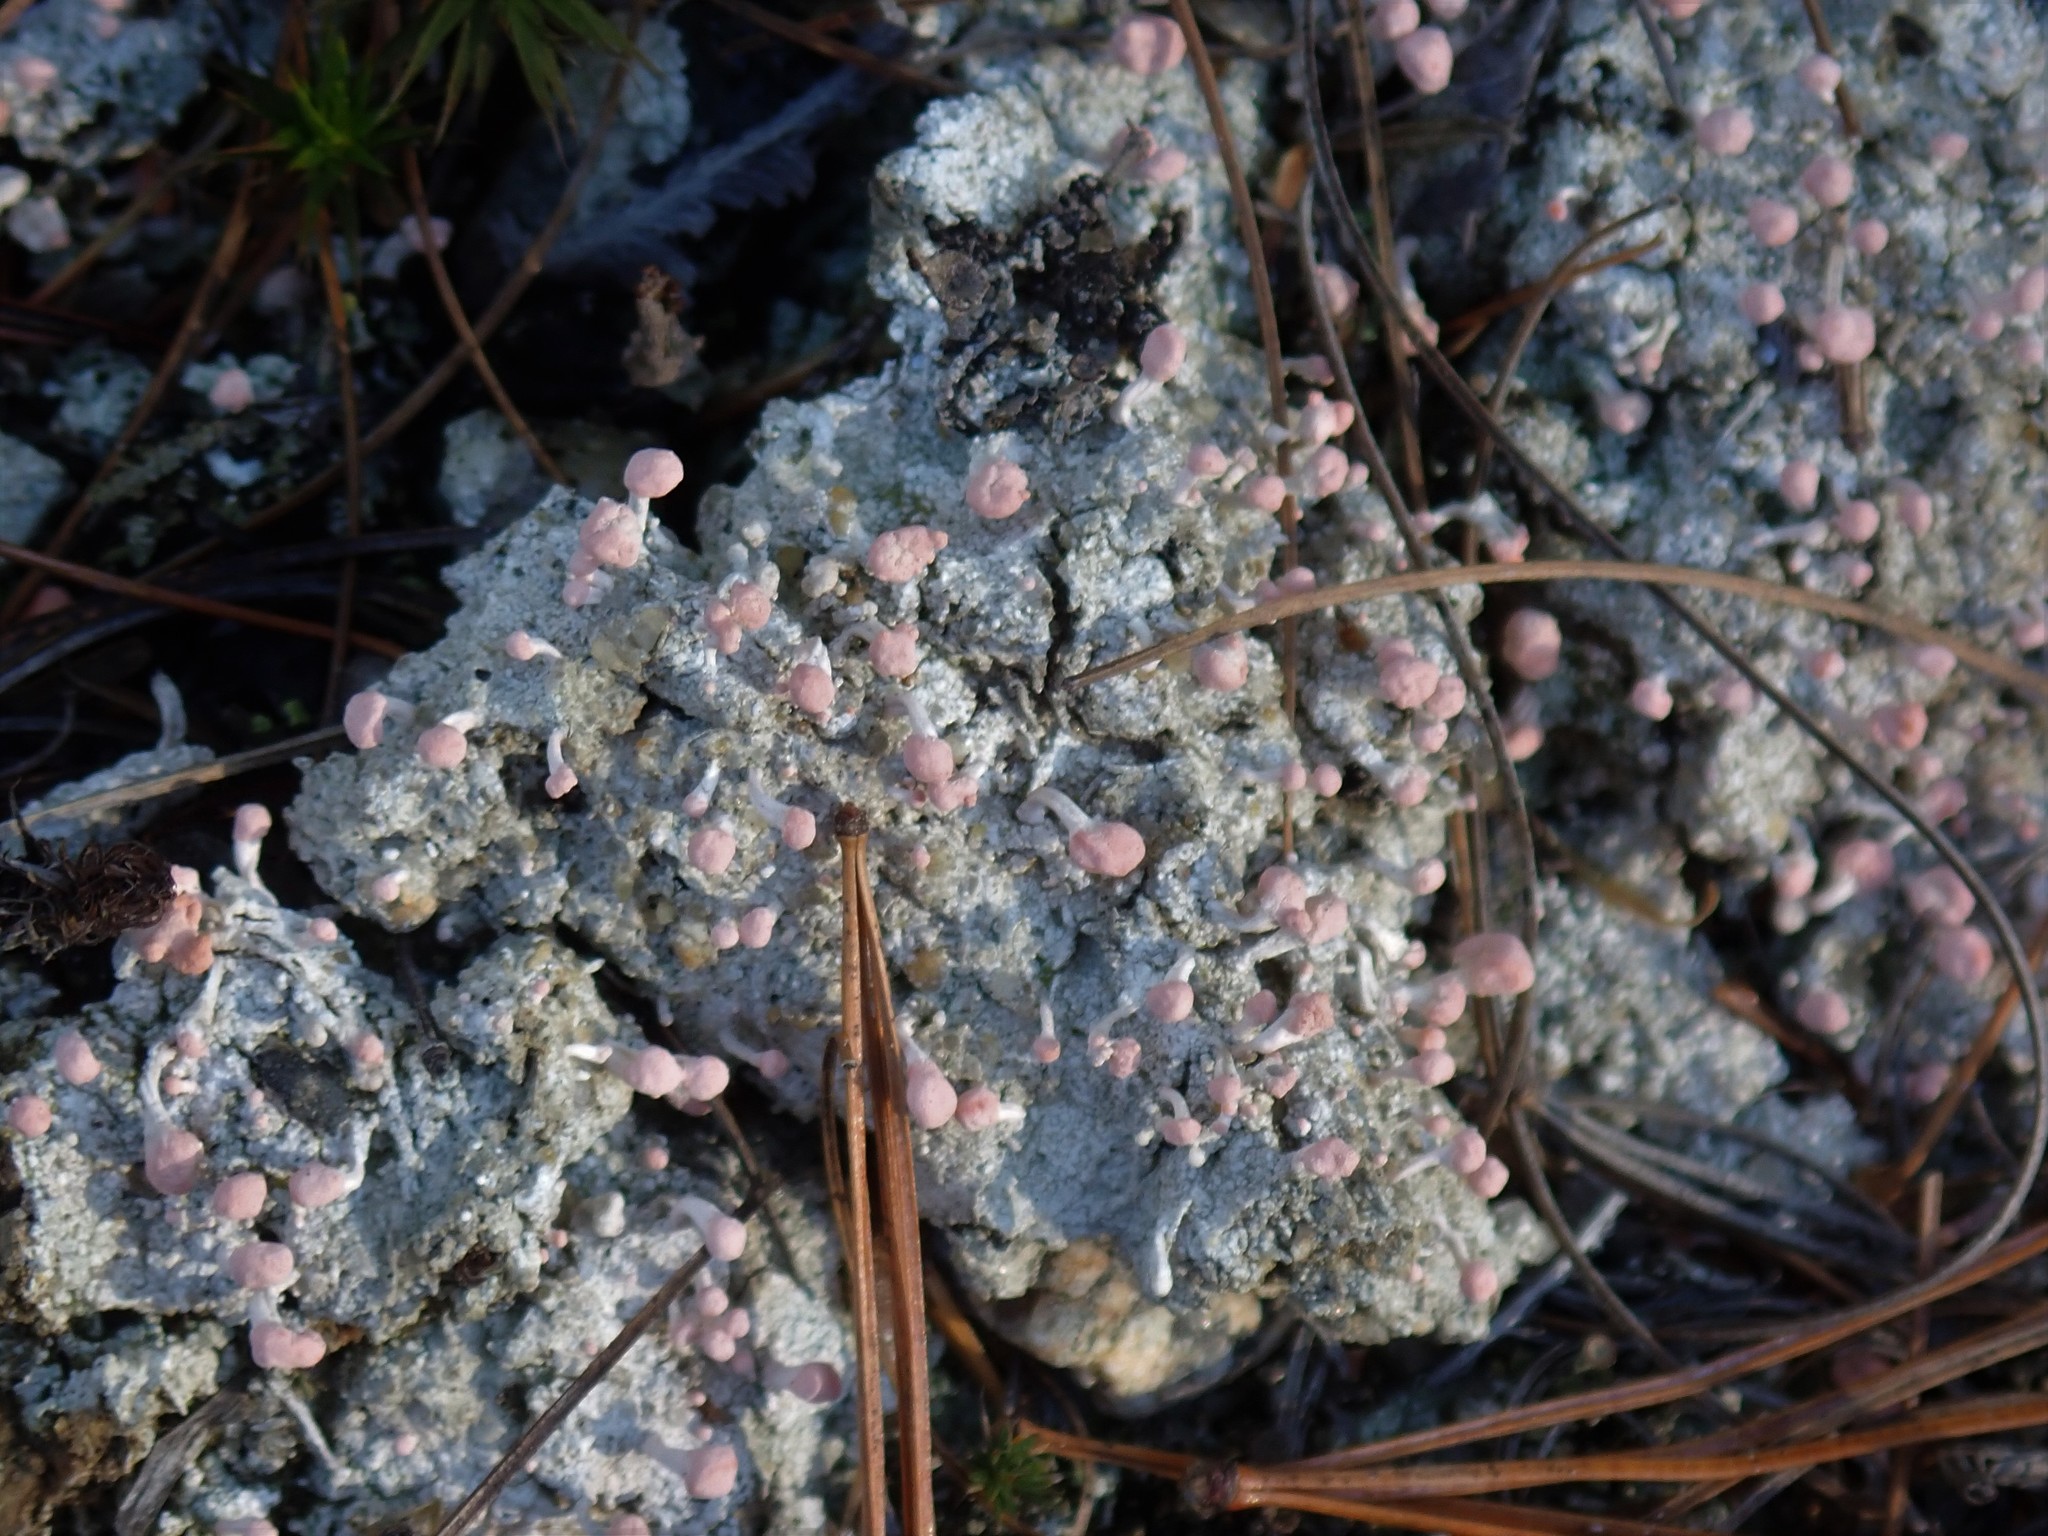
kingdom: Fungi
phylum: Ascomycota
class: Lecanoromycetes
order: Pertusariales
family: Icmadophilaceae
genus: Dibaeis
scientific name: Dibaeis baeomyces
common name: Pink earth lichen
